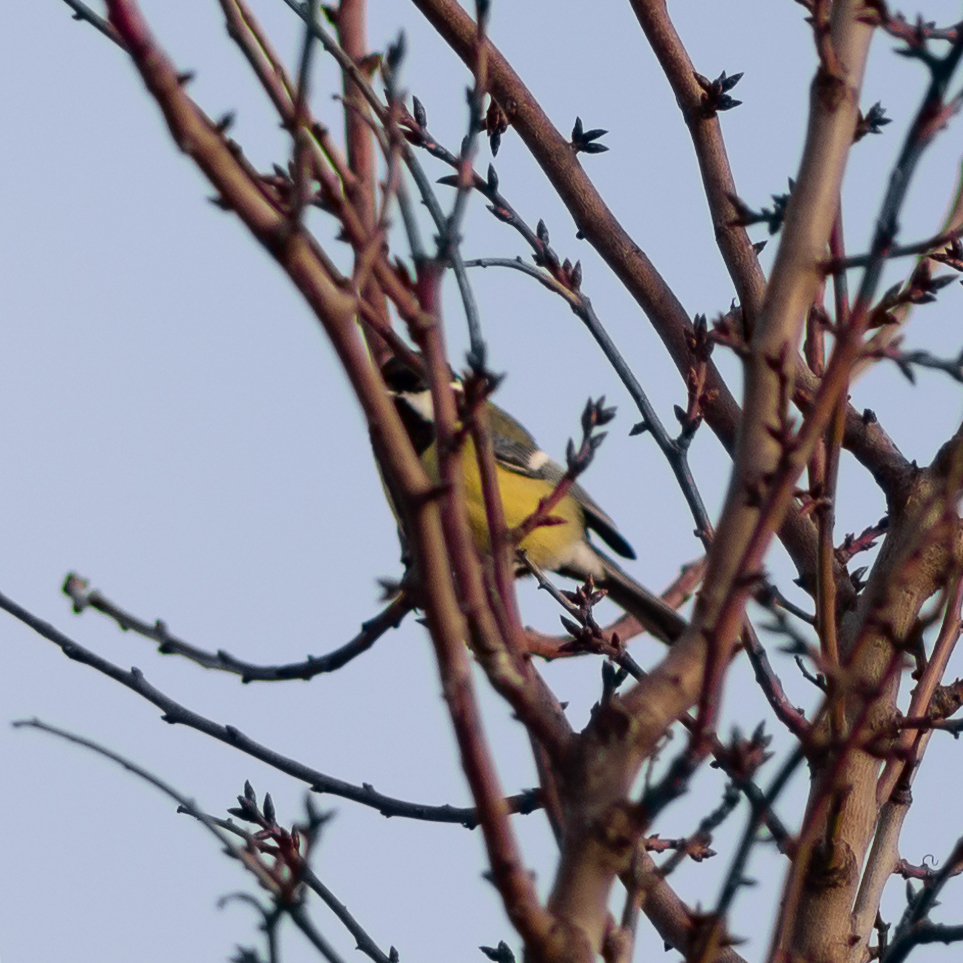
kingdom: Animalia
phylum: Chordata
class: Aves
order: Passeriformes
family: Paridae
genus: Parus
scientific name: Parus major
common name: Great tit
